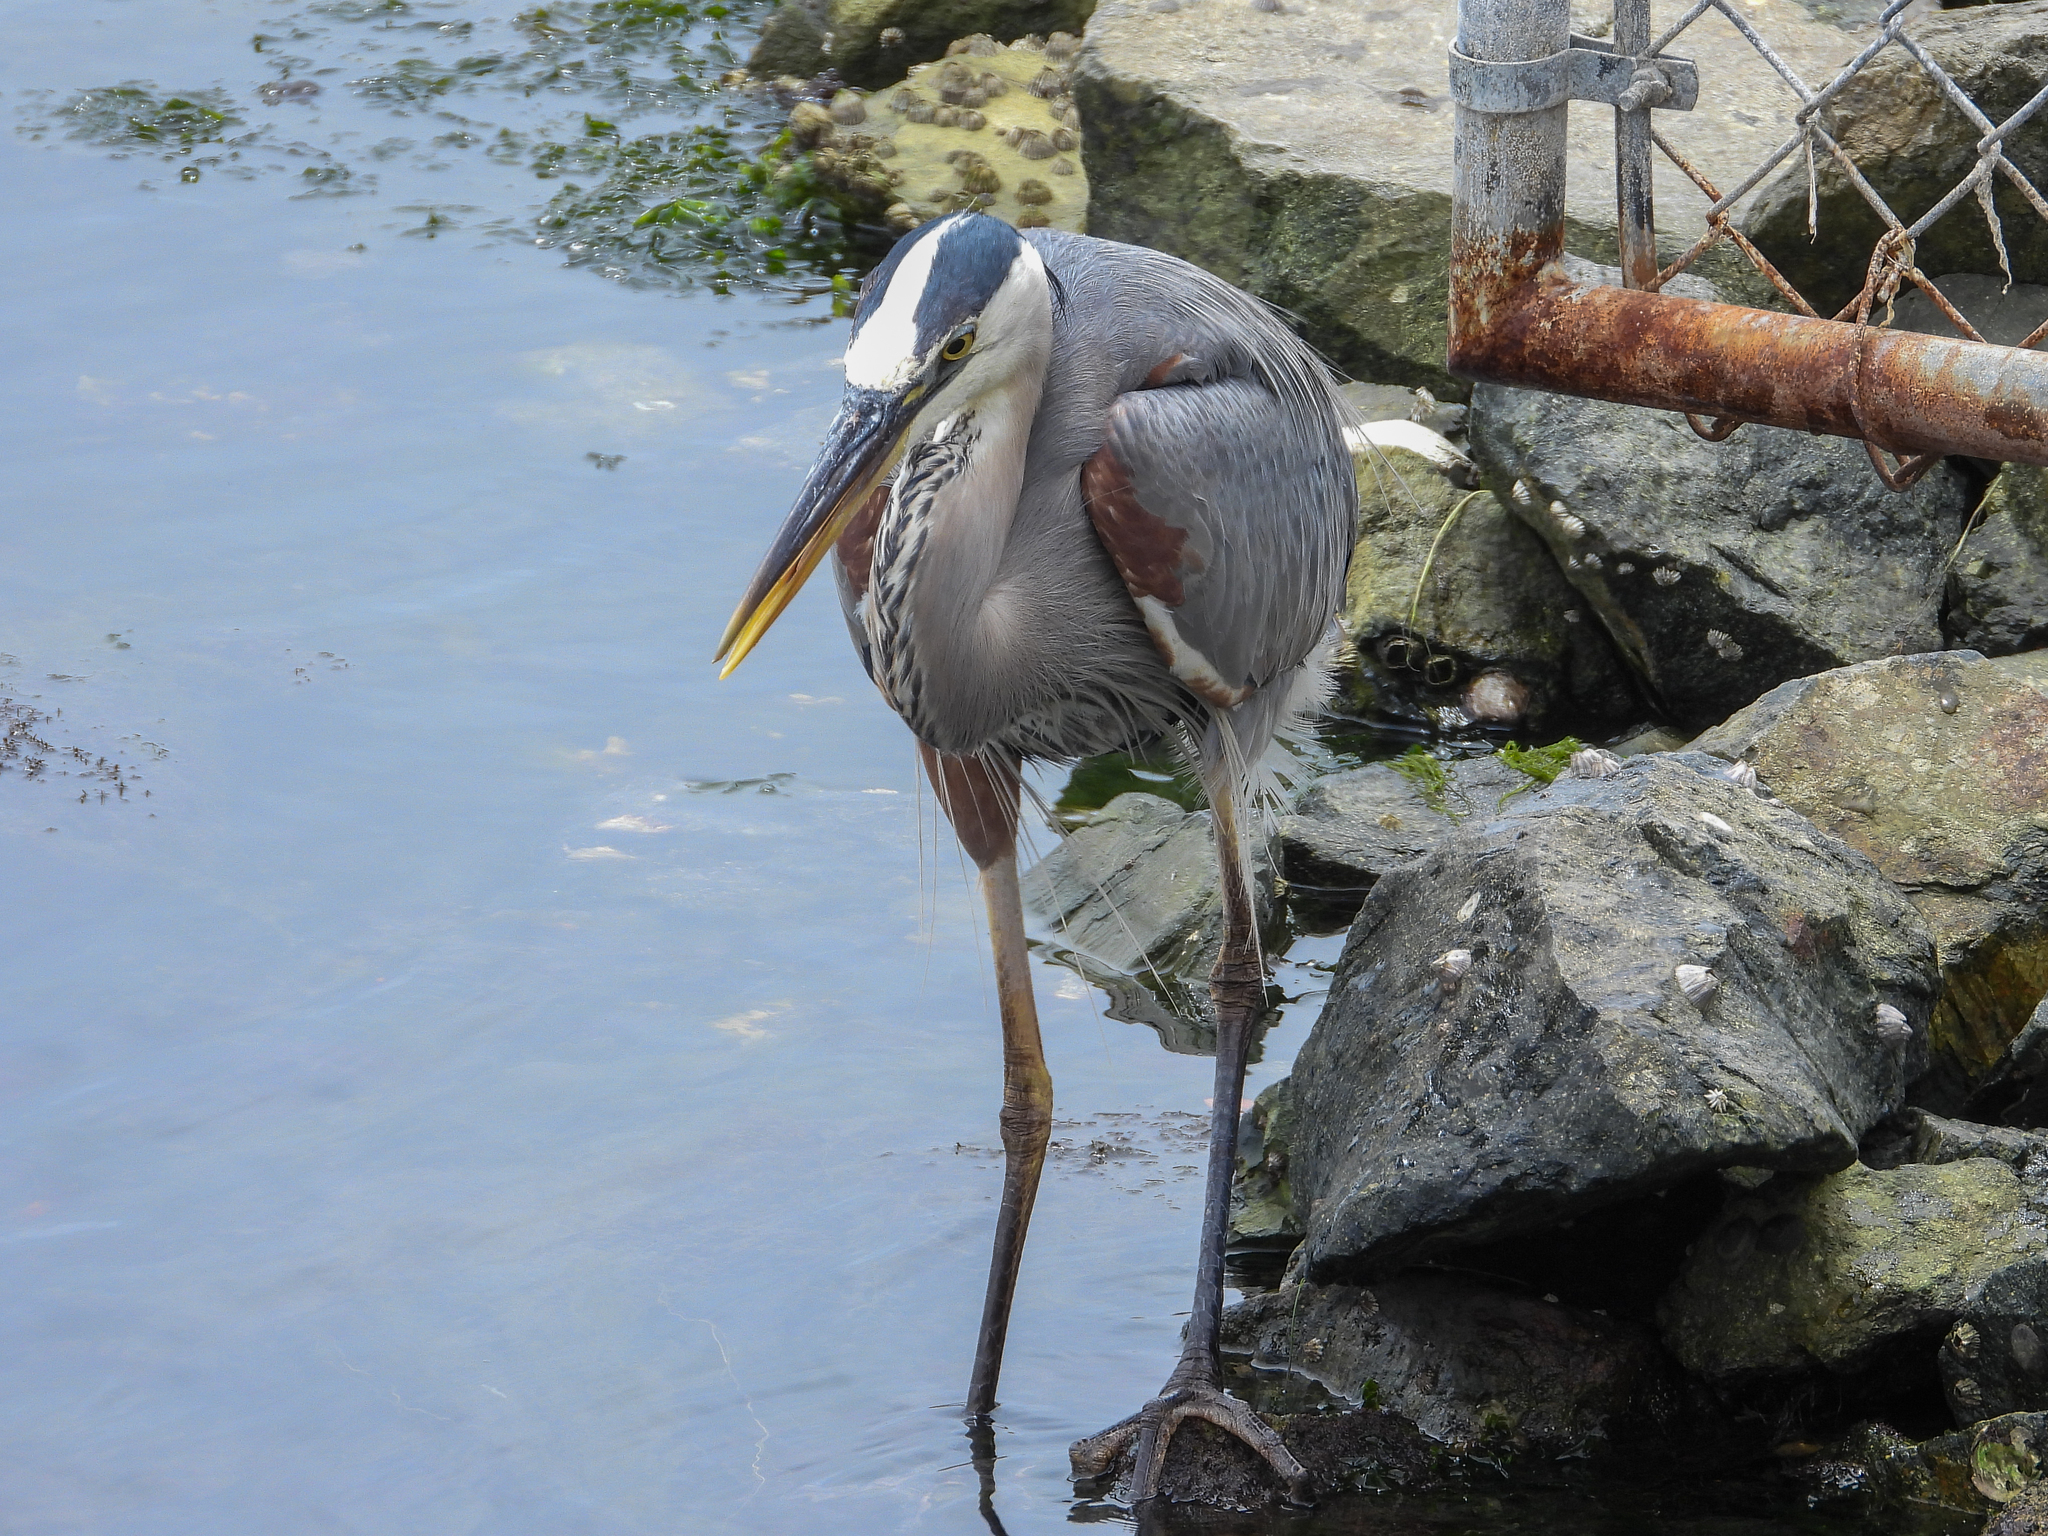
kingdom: Animalia
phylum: Chordata
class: Aves
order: Pelecaniformes
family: Ardeidae
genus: Ardea
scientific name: Ardea herodias
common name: Great blue heron
